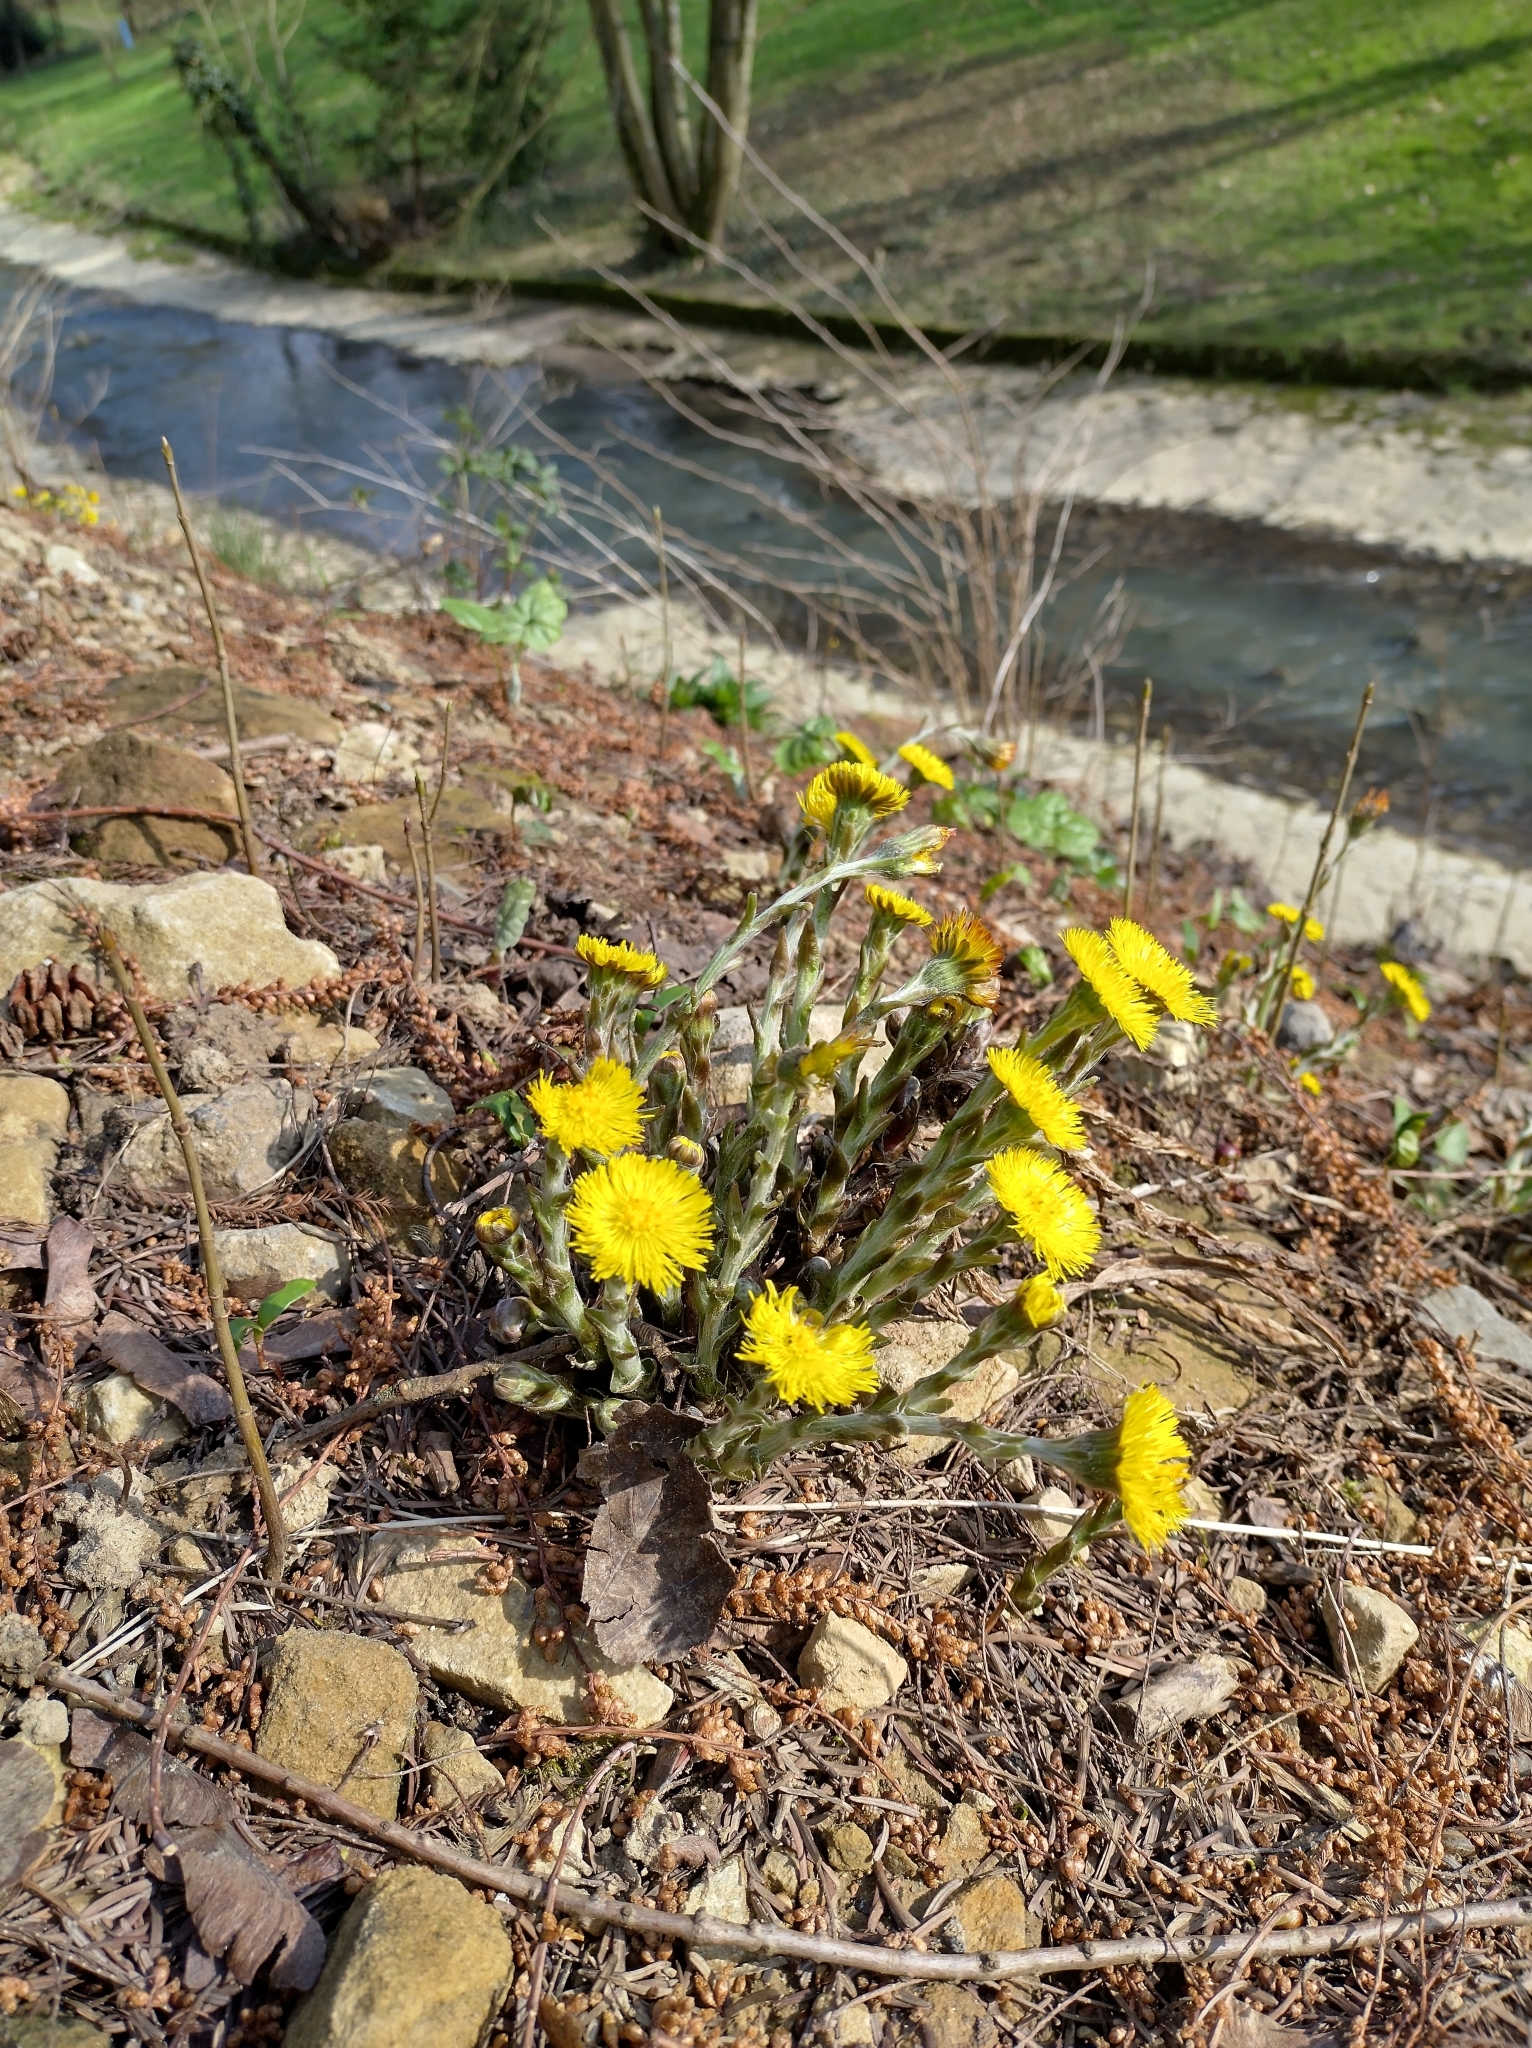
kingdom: Plantae
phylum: Tracheophyta
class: Magnoliopsida
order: Asterales
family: Asteraceae
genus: Tussilago
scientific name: Tussilago farfara
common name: Coltsfoot
